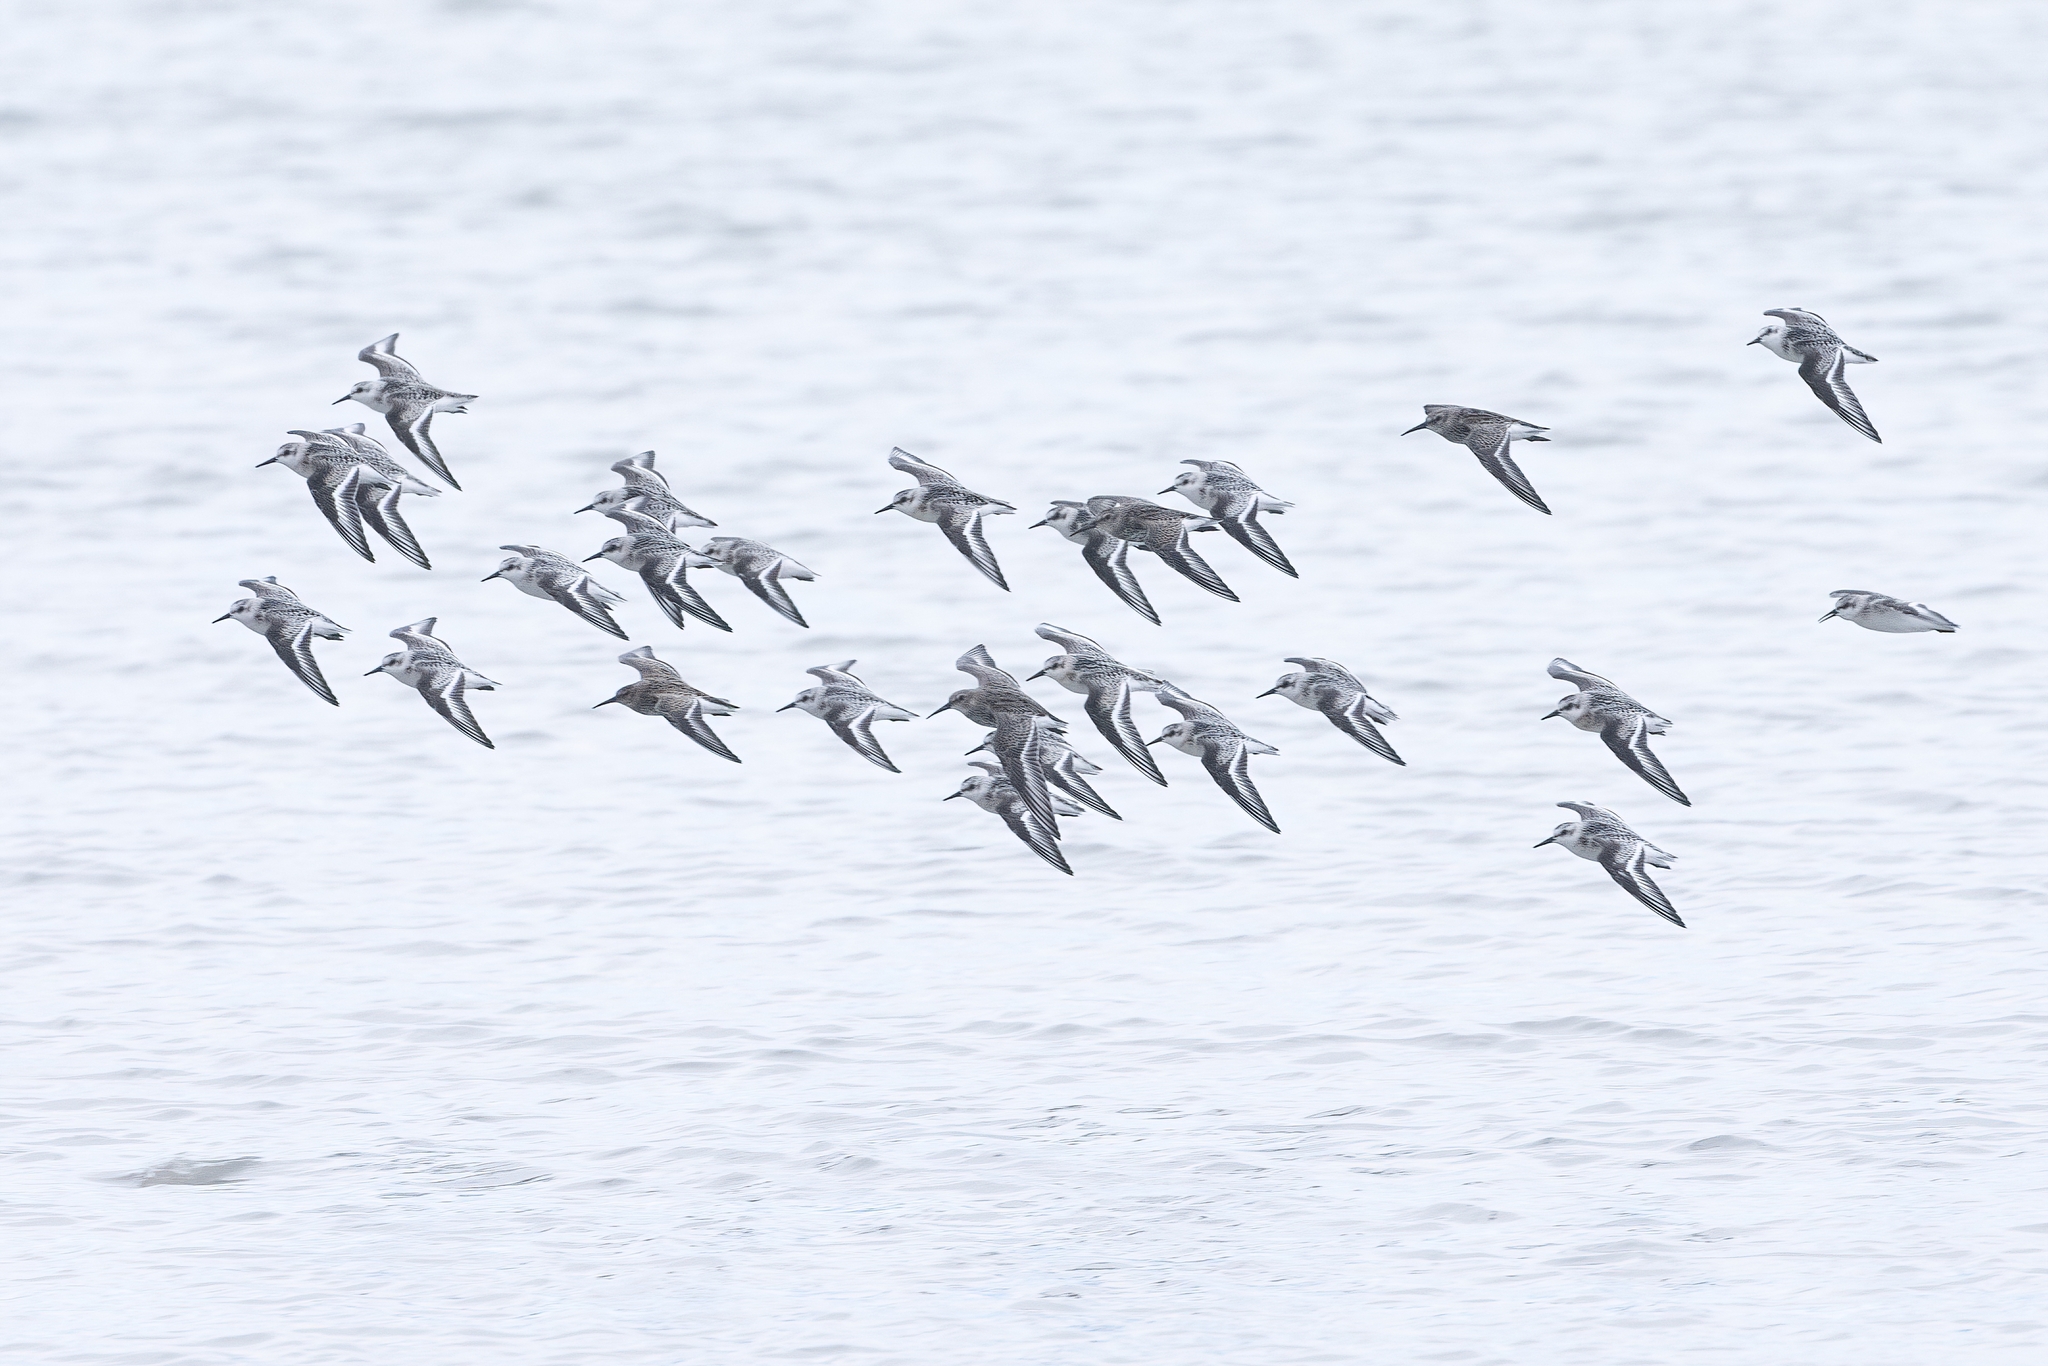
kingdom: Animalia
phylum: Chordata
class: Aves
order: Charadriiformes
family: Scolopacidae
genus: Calidris
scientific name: Calidris alba
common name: Sanderling
